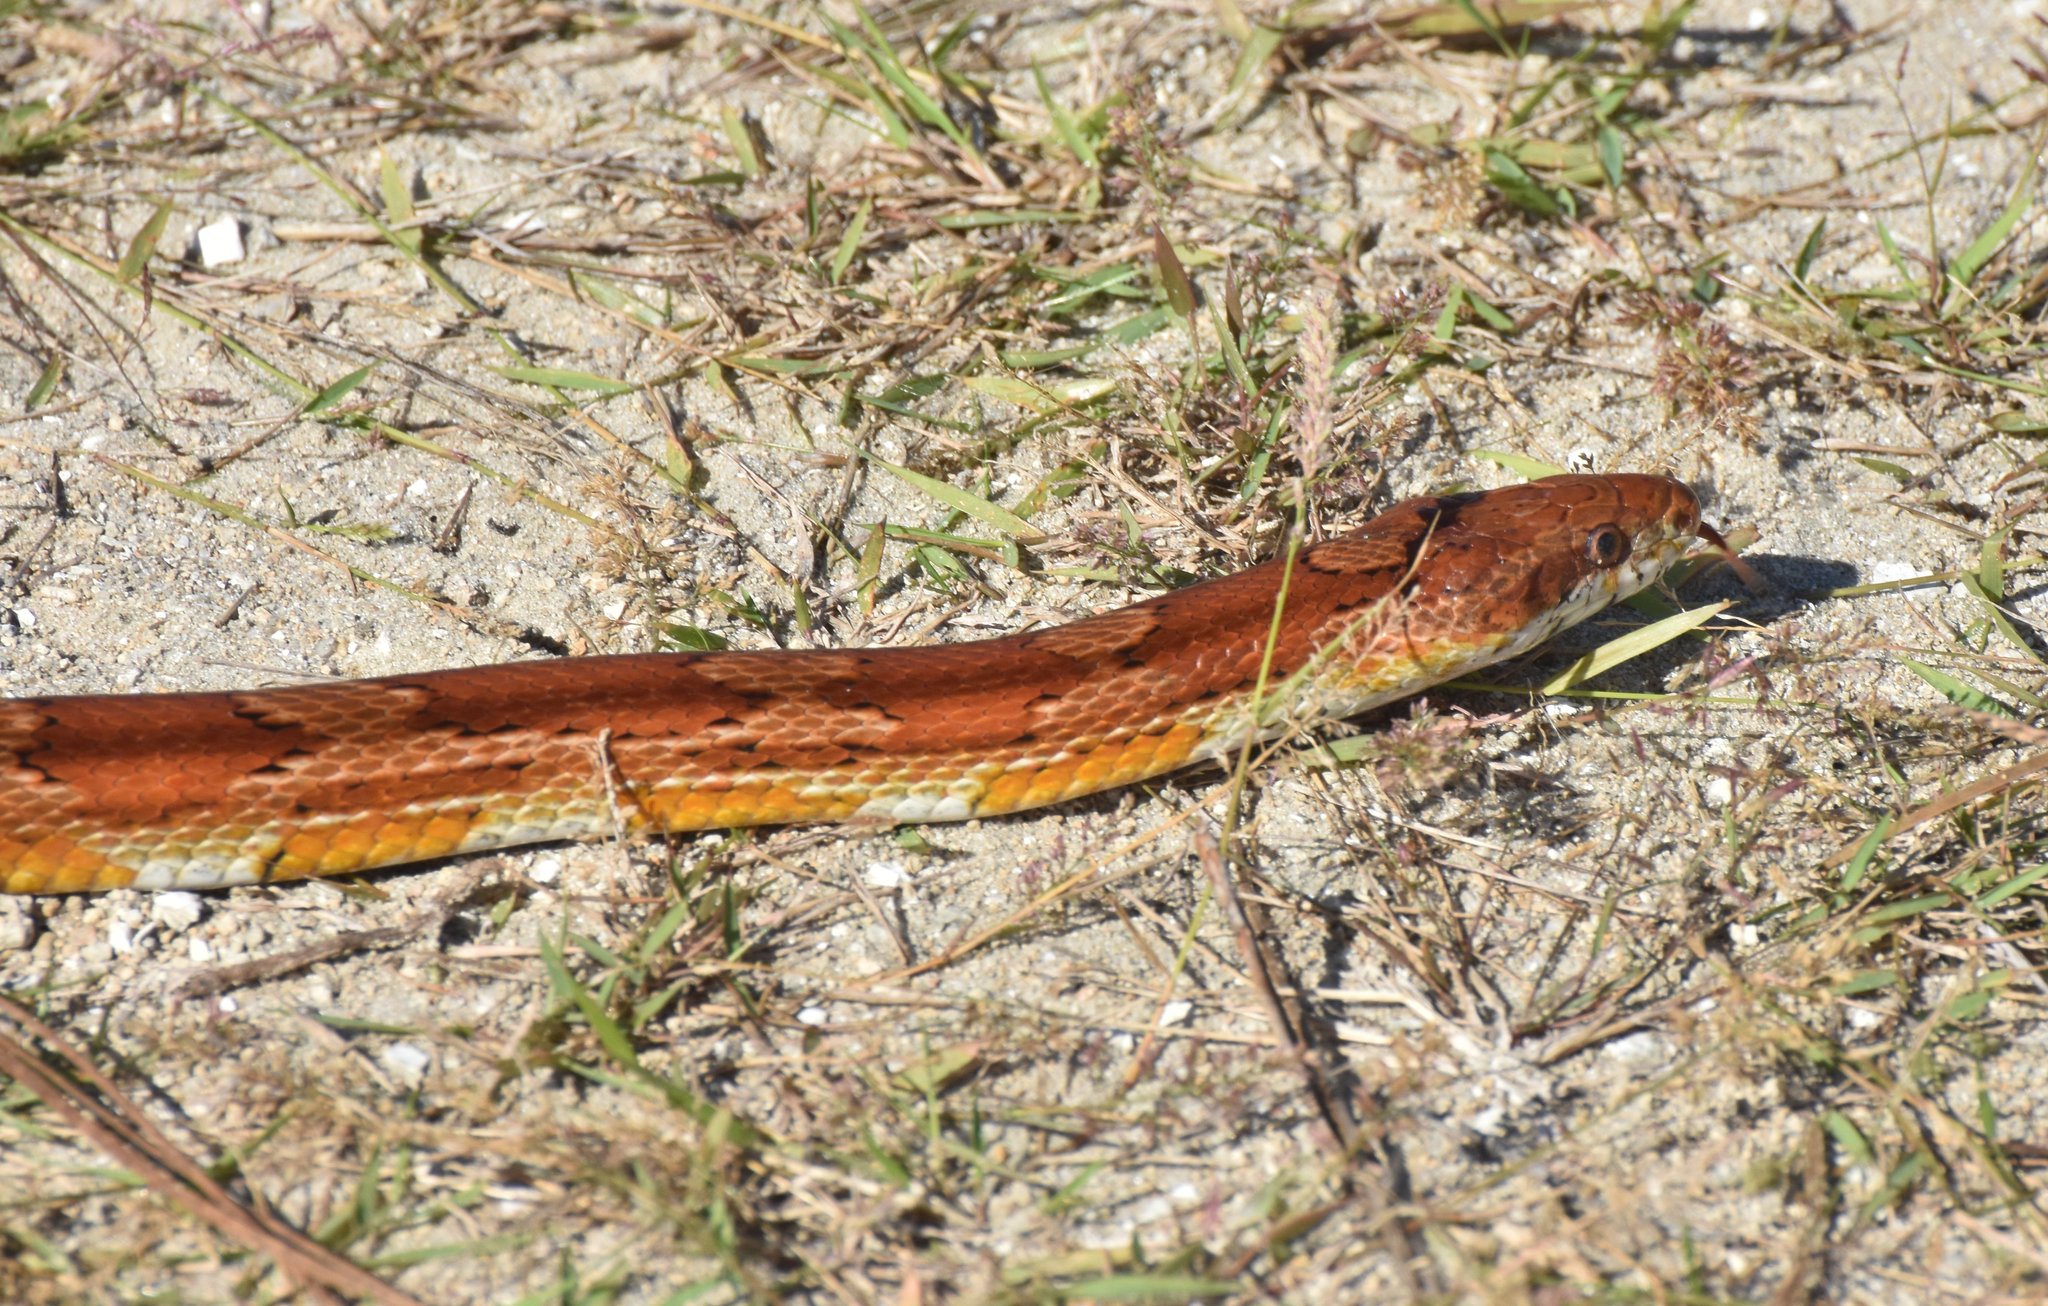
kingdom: Animalia
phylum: Chordata
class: Squamata
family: Colubridae
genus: Pantherophis
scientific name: Pantherophis guttatus
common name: Red cornsnake
